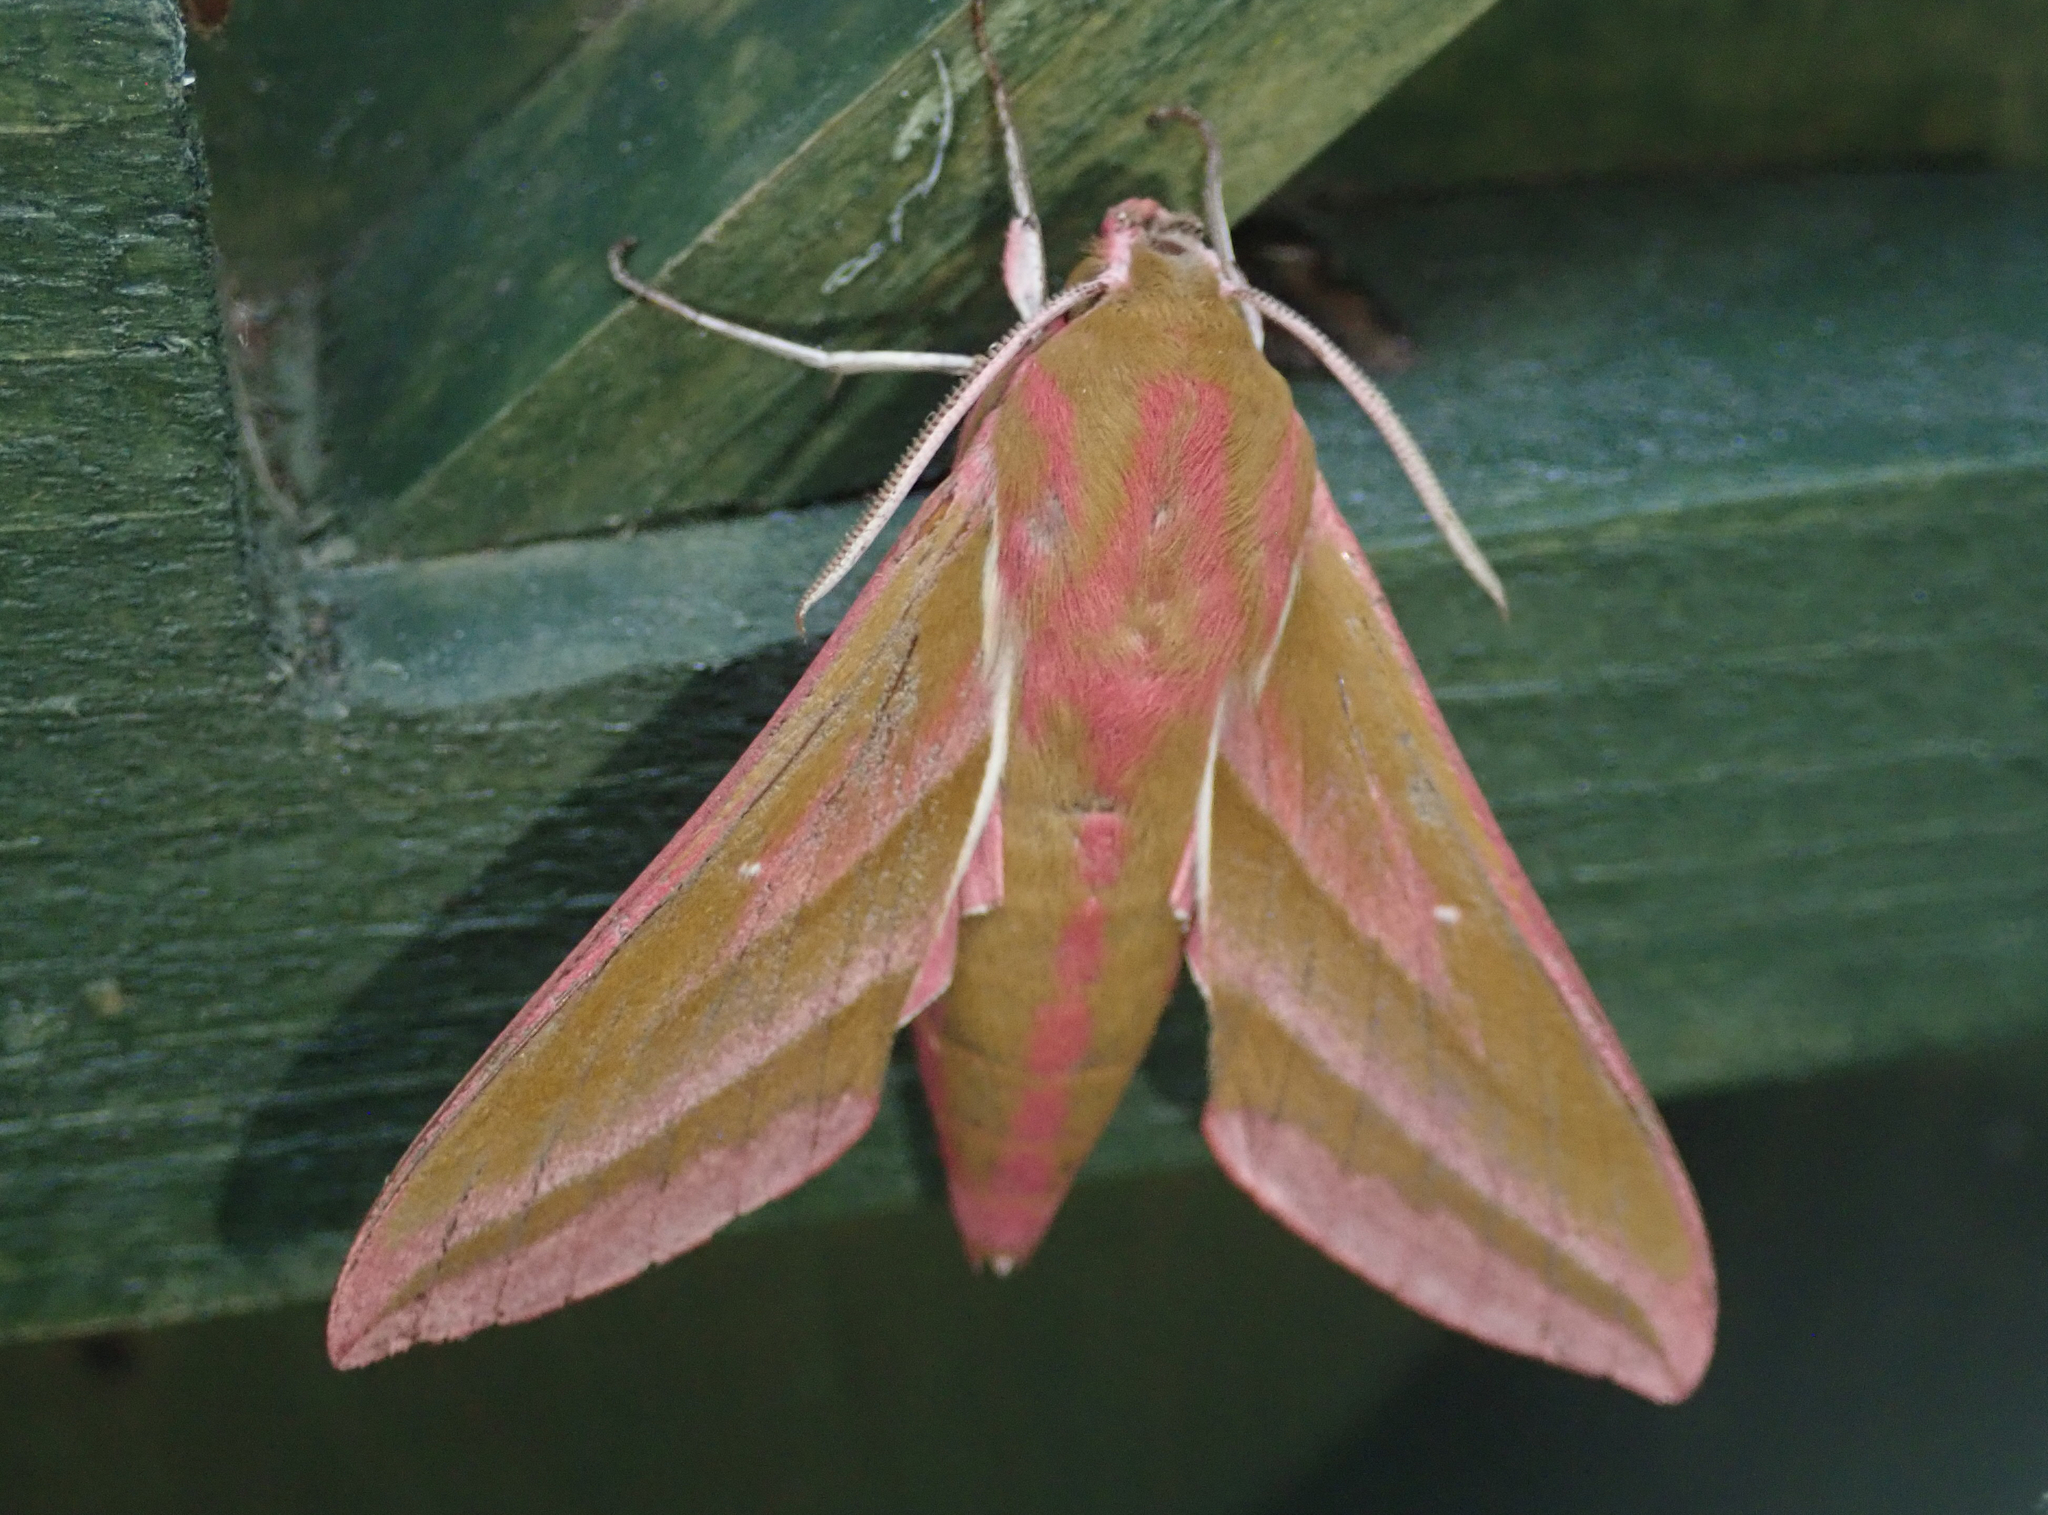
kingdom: Animalia
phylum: Arthropoda
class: Insecta
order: Lepidoptera
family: Sphingidae
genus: Deilephila
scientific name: Deilephila elpenor
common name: Elephant hawk-moth
